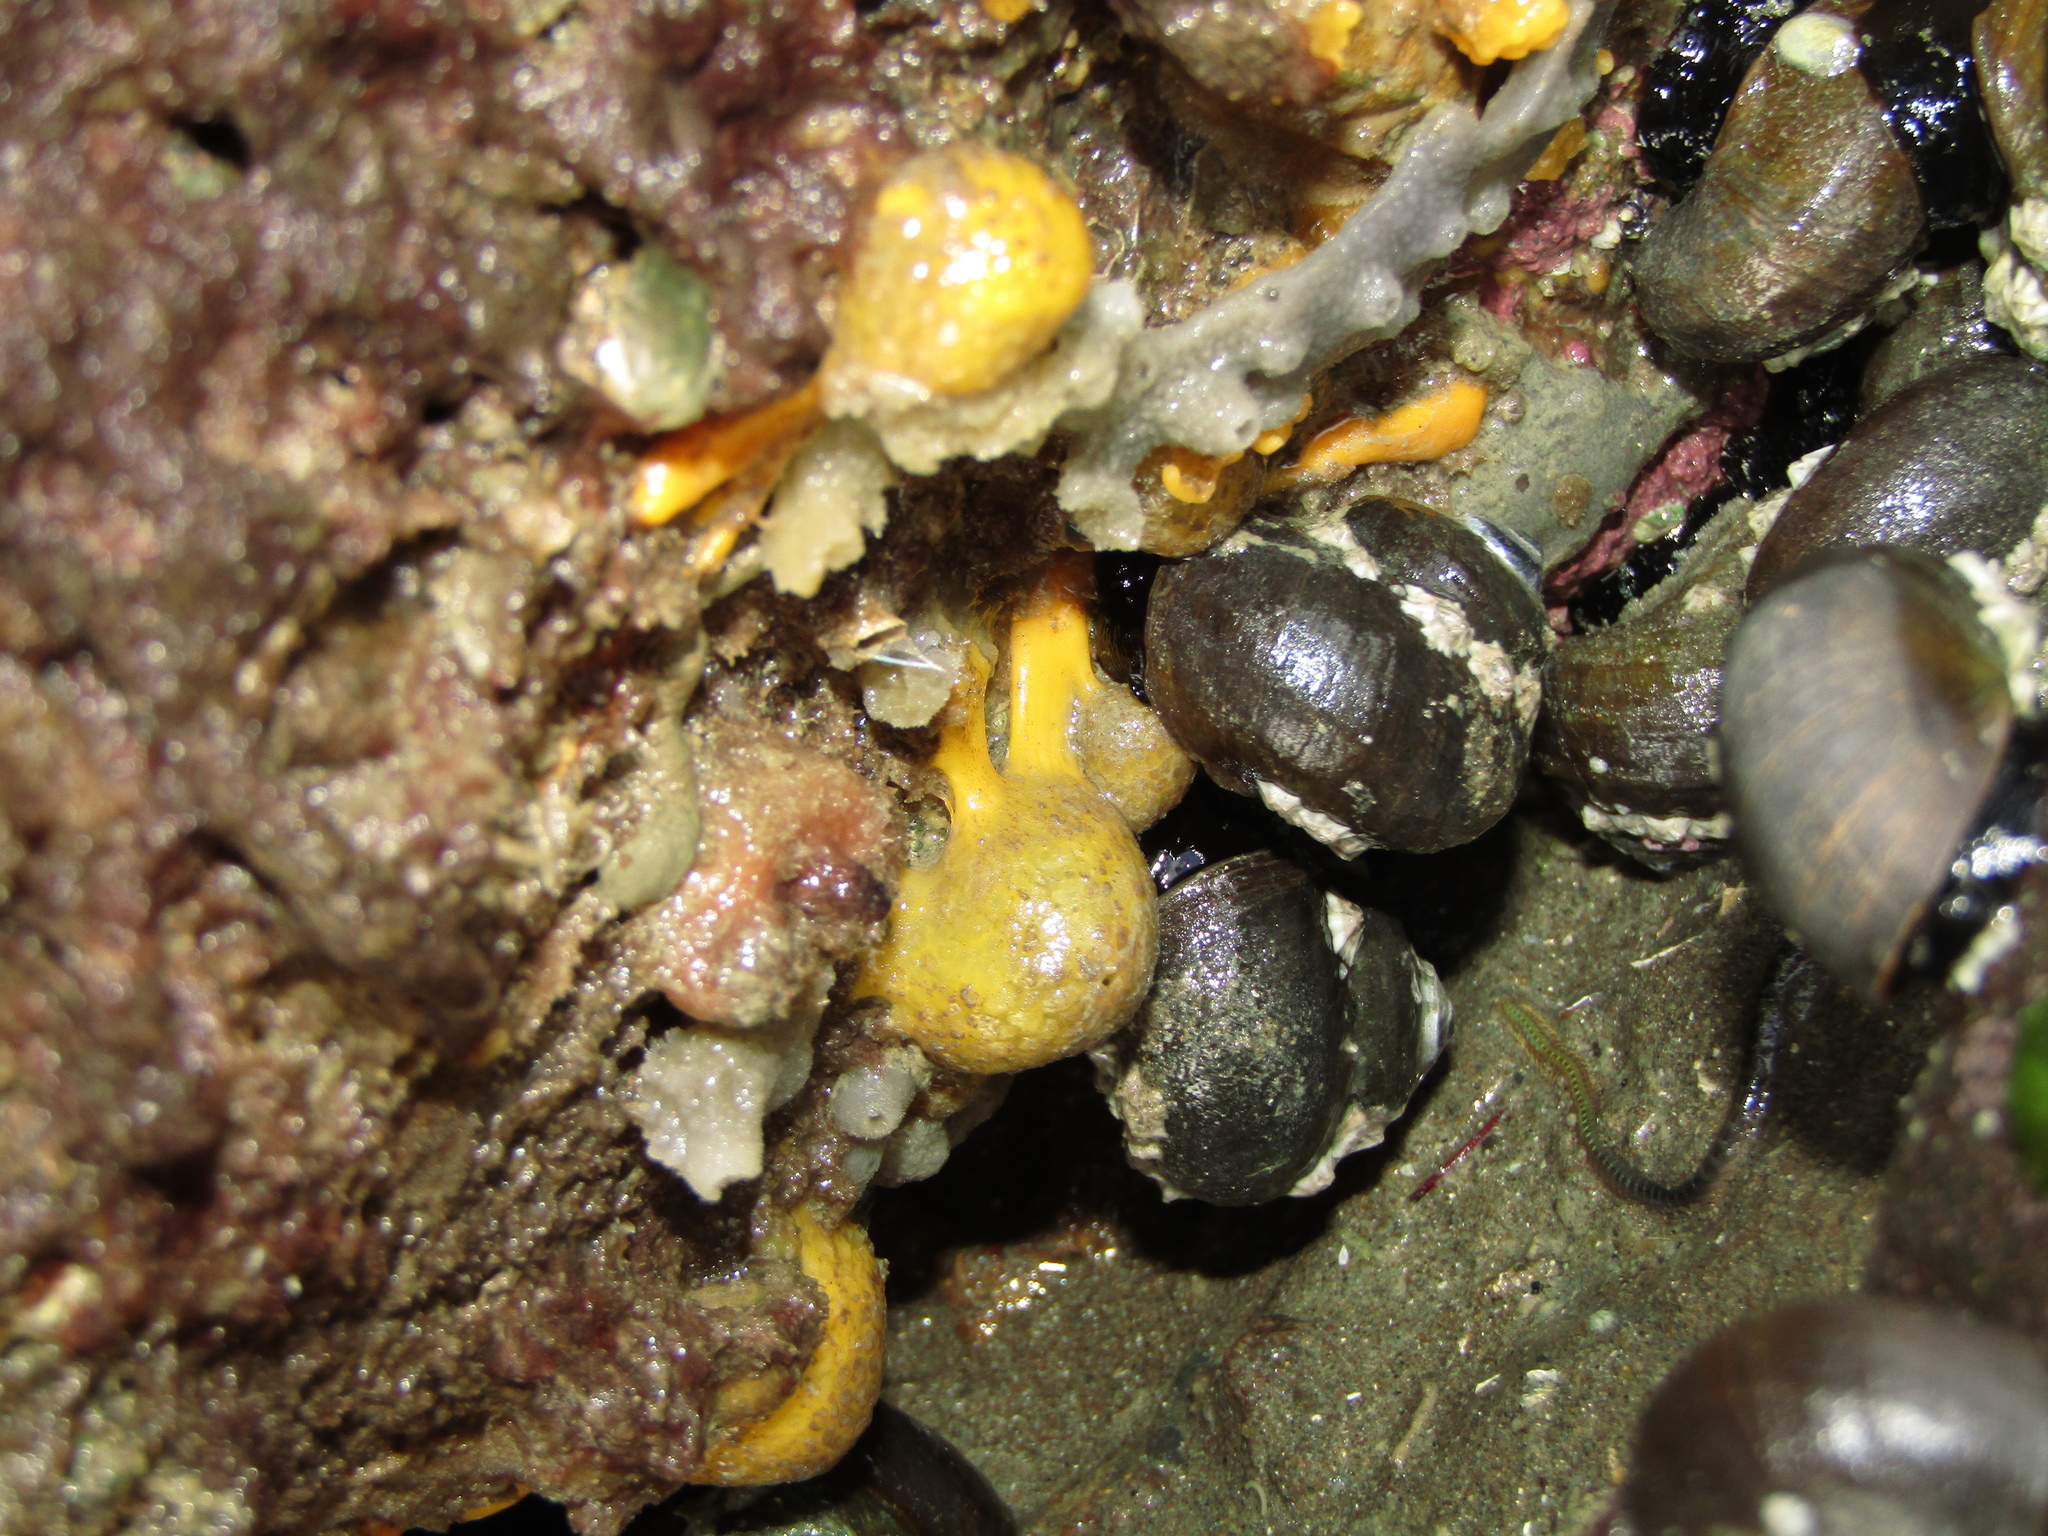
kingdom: Animalia
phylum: Porifera
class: Demospongiae
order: Tethyida
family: Tethyidae
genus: Tethya
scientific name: Tethya stolonifera
